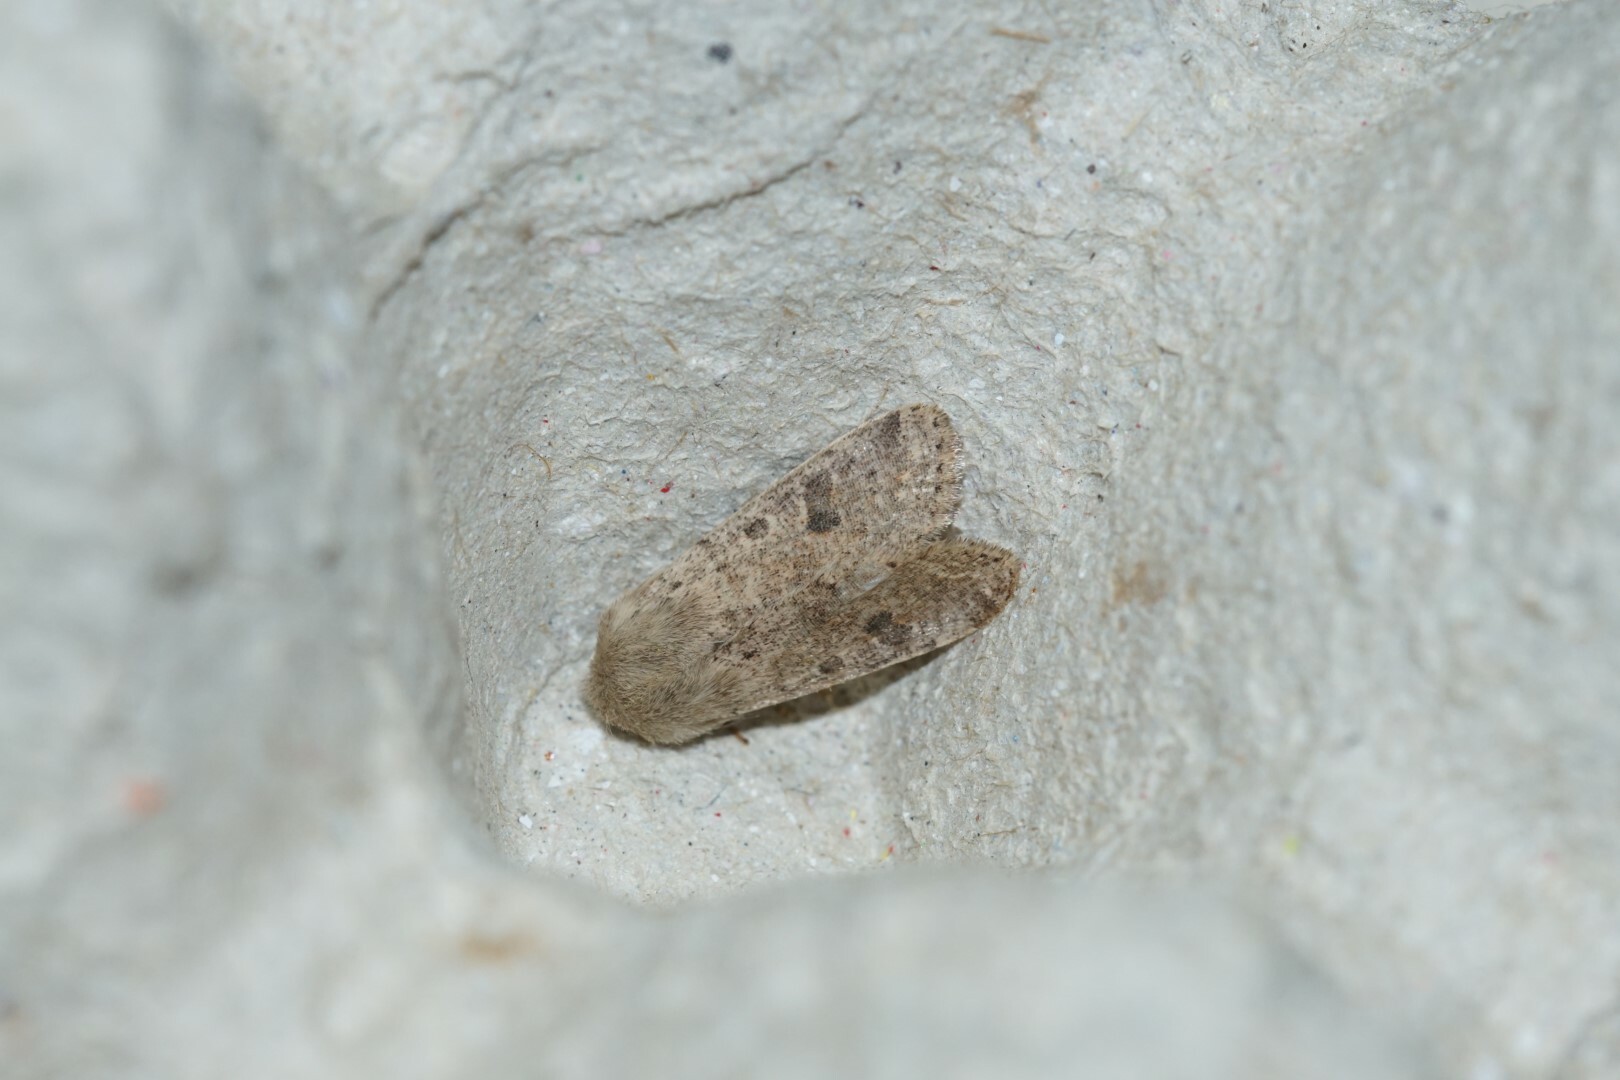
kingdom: Animalia
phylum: Arthropoda
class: Insecta
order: Lepidoptera
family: Noctuidae
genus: Orthosia
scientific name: Orthosia cruda
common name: Small quaker
